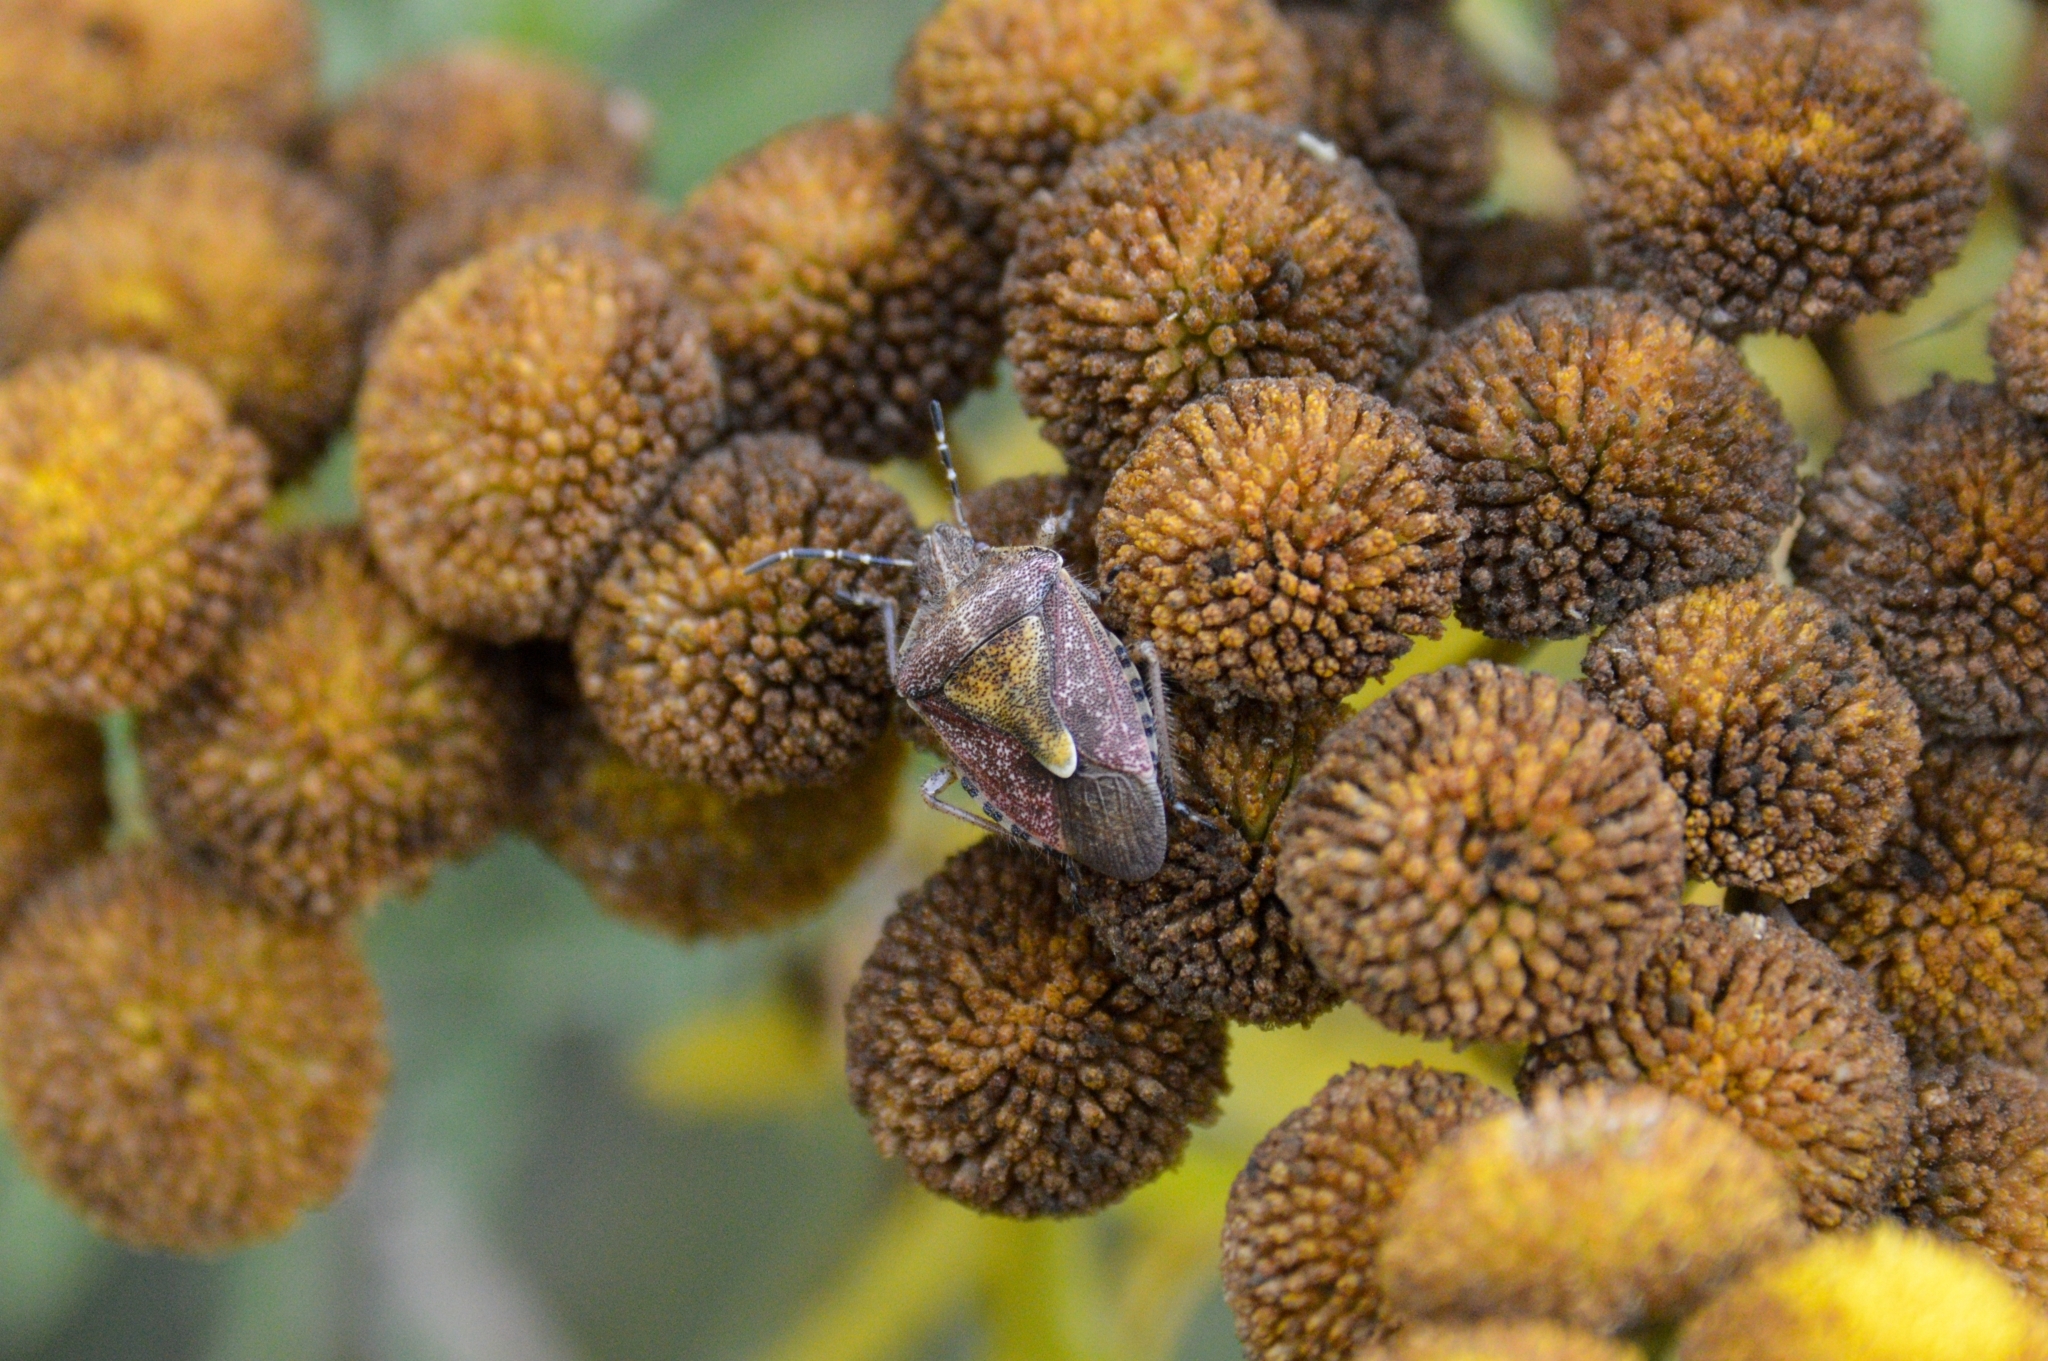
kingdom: Animalia
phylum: Arthropoda
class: Insecta
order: Hemiptera
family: Pentatomidae
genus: Dolycoris
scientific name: Dolycoris baccarum
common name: Sloe bug
